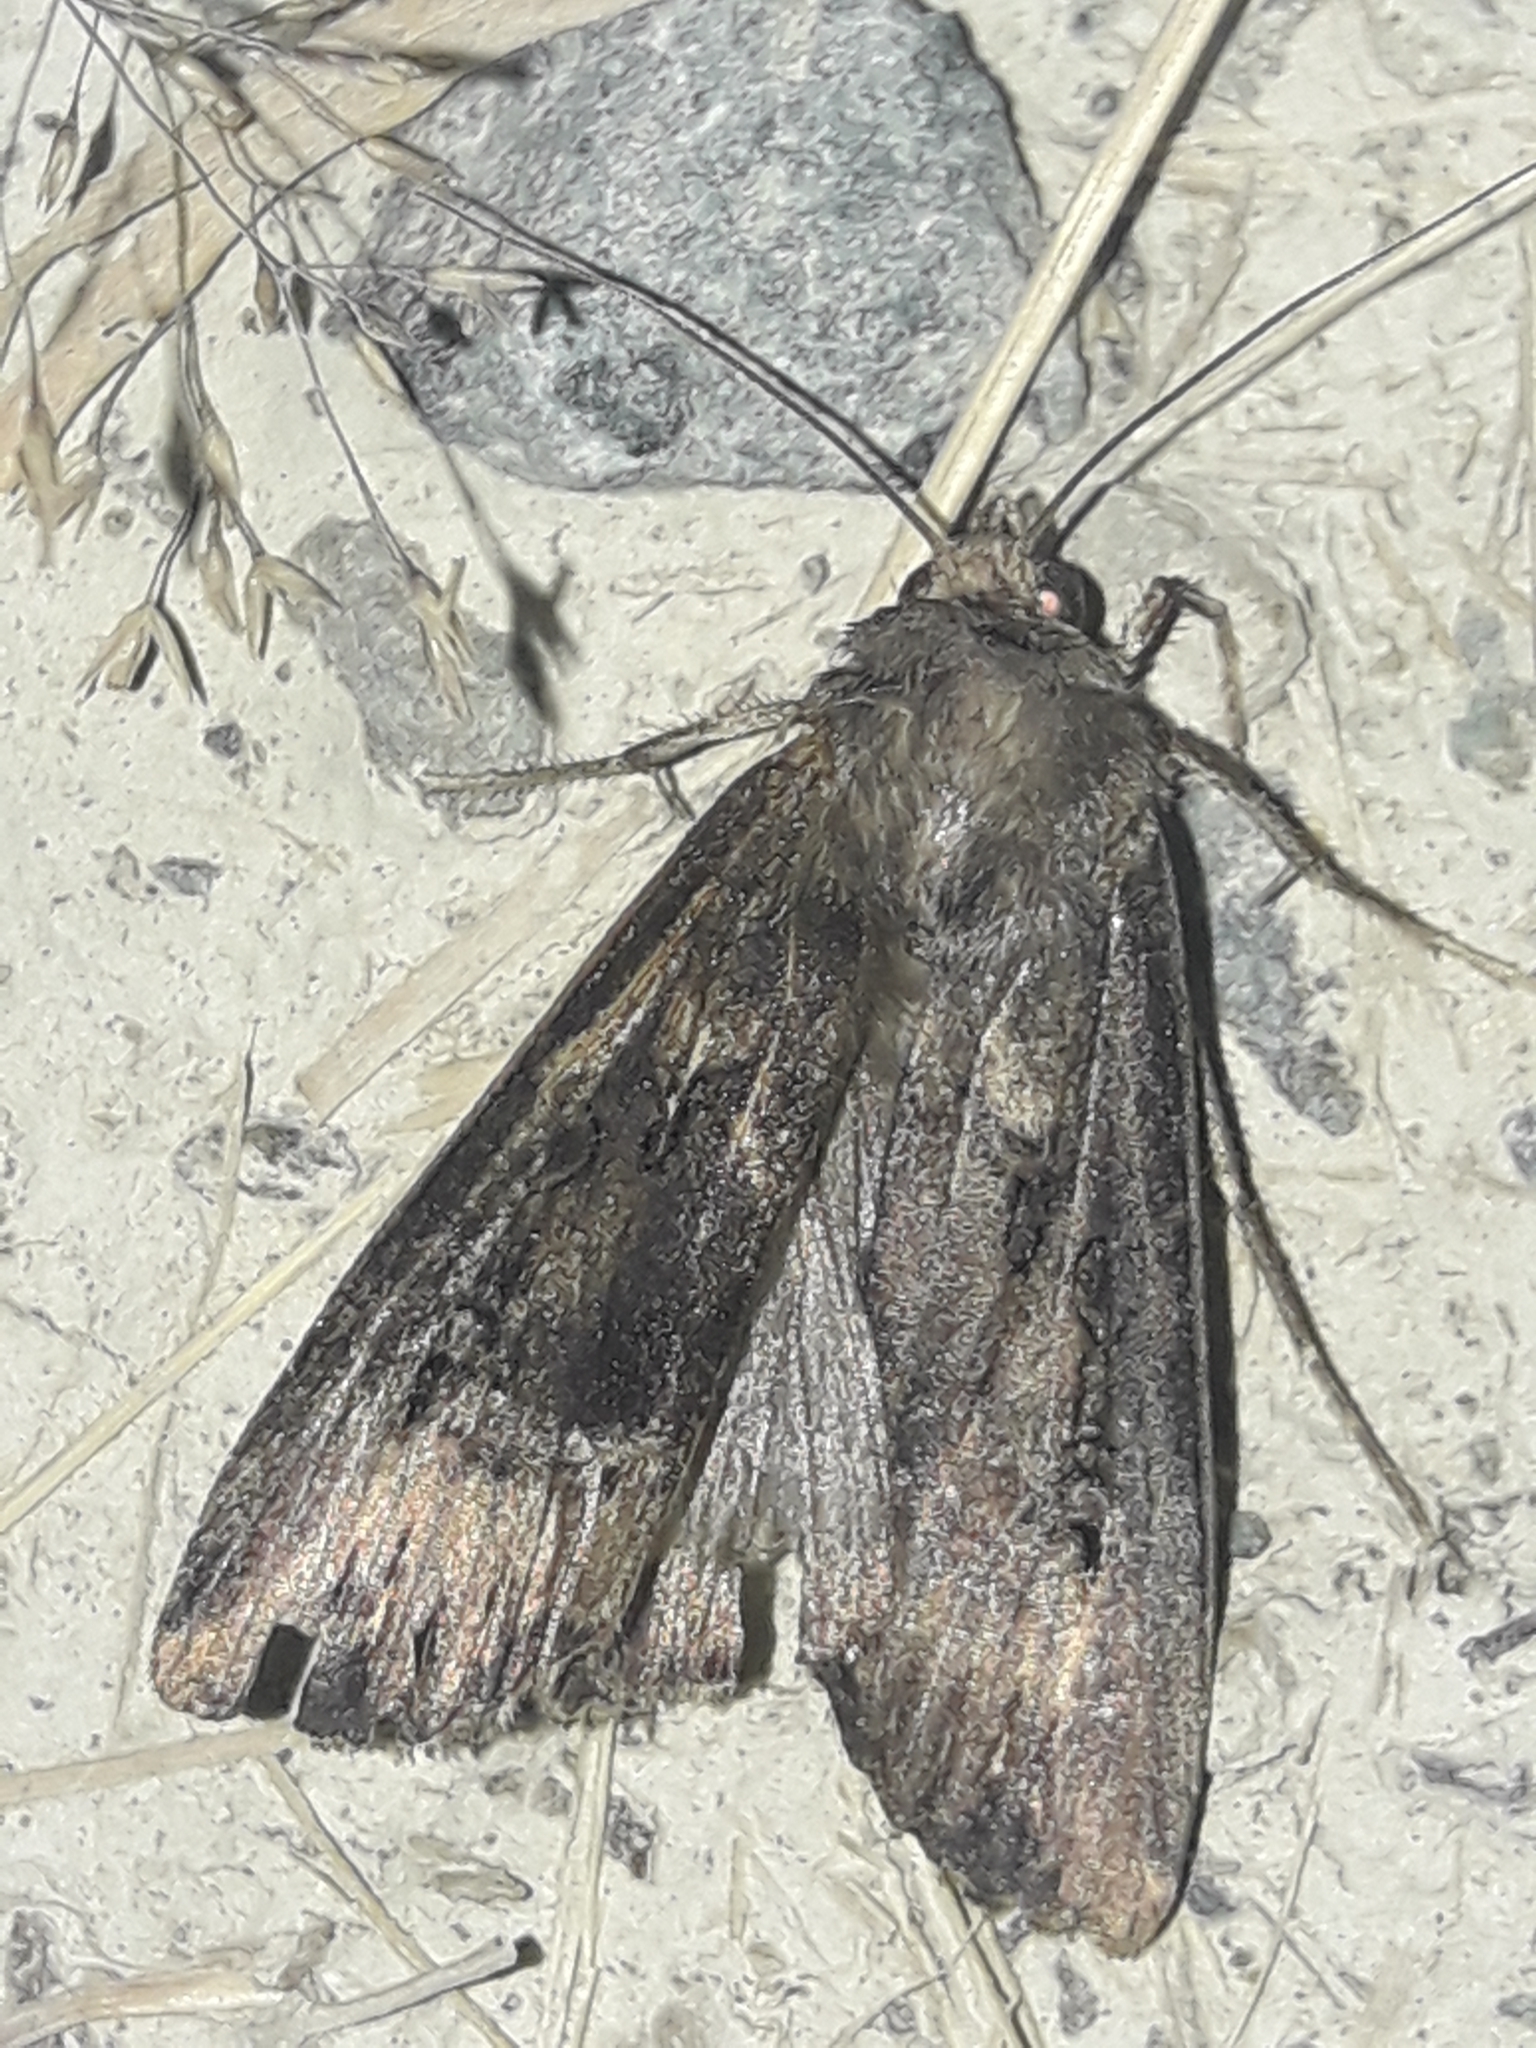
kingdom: Animalia
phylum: Arthropoda
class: Insecta
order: Lepidoptera
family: Noctuidae
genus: Agrotis
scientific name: Agrotis ipsilon
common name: Dark sword-grass
